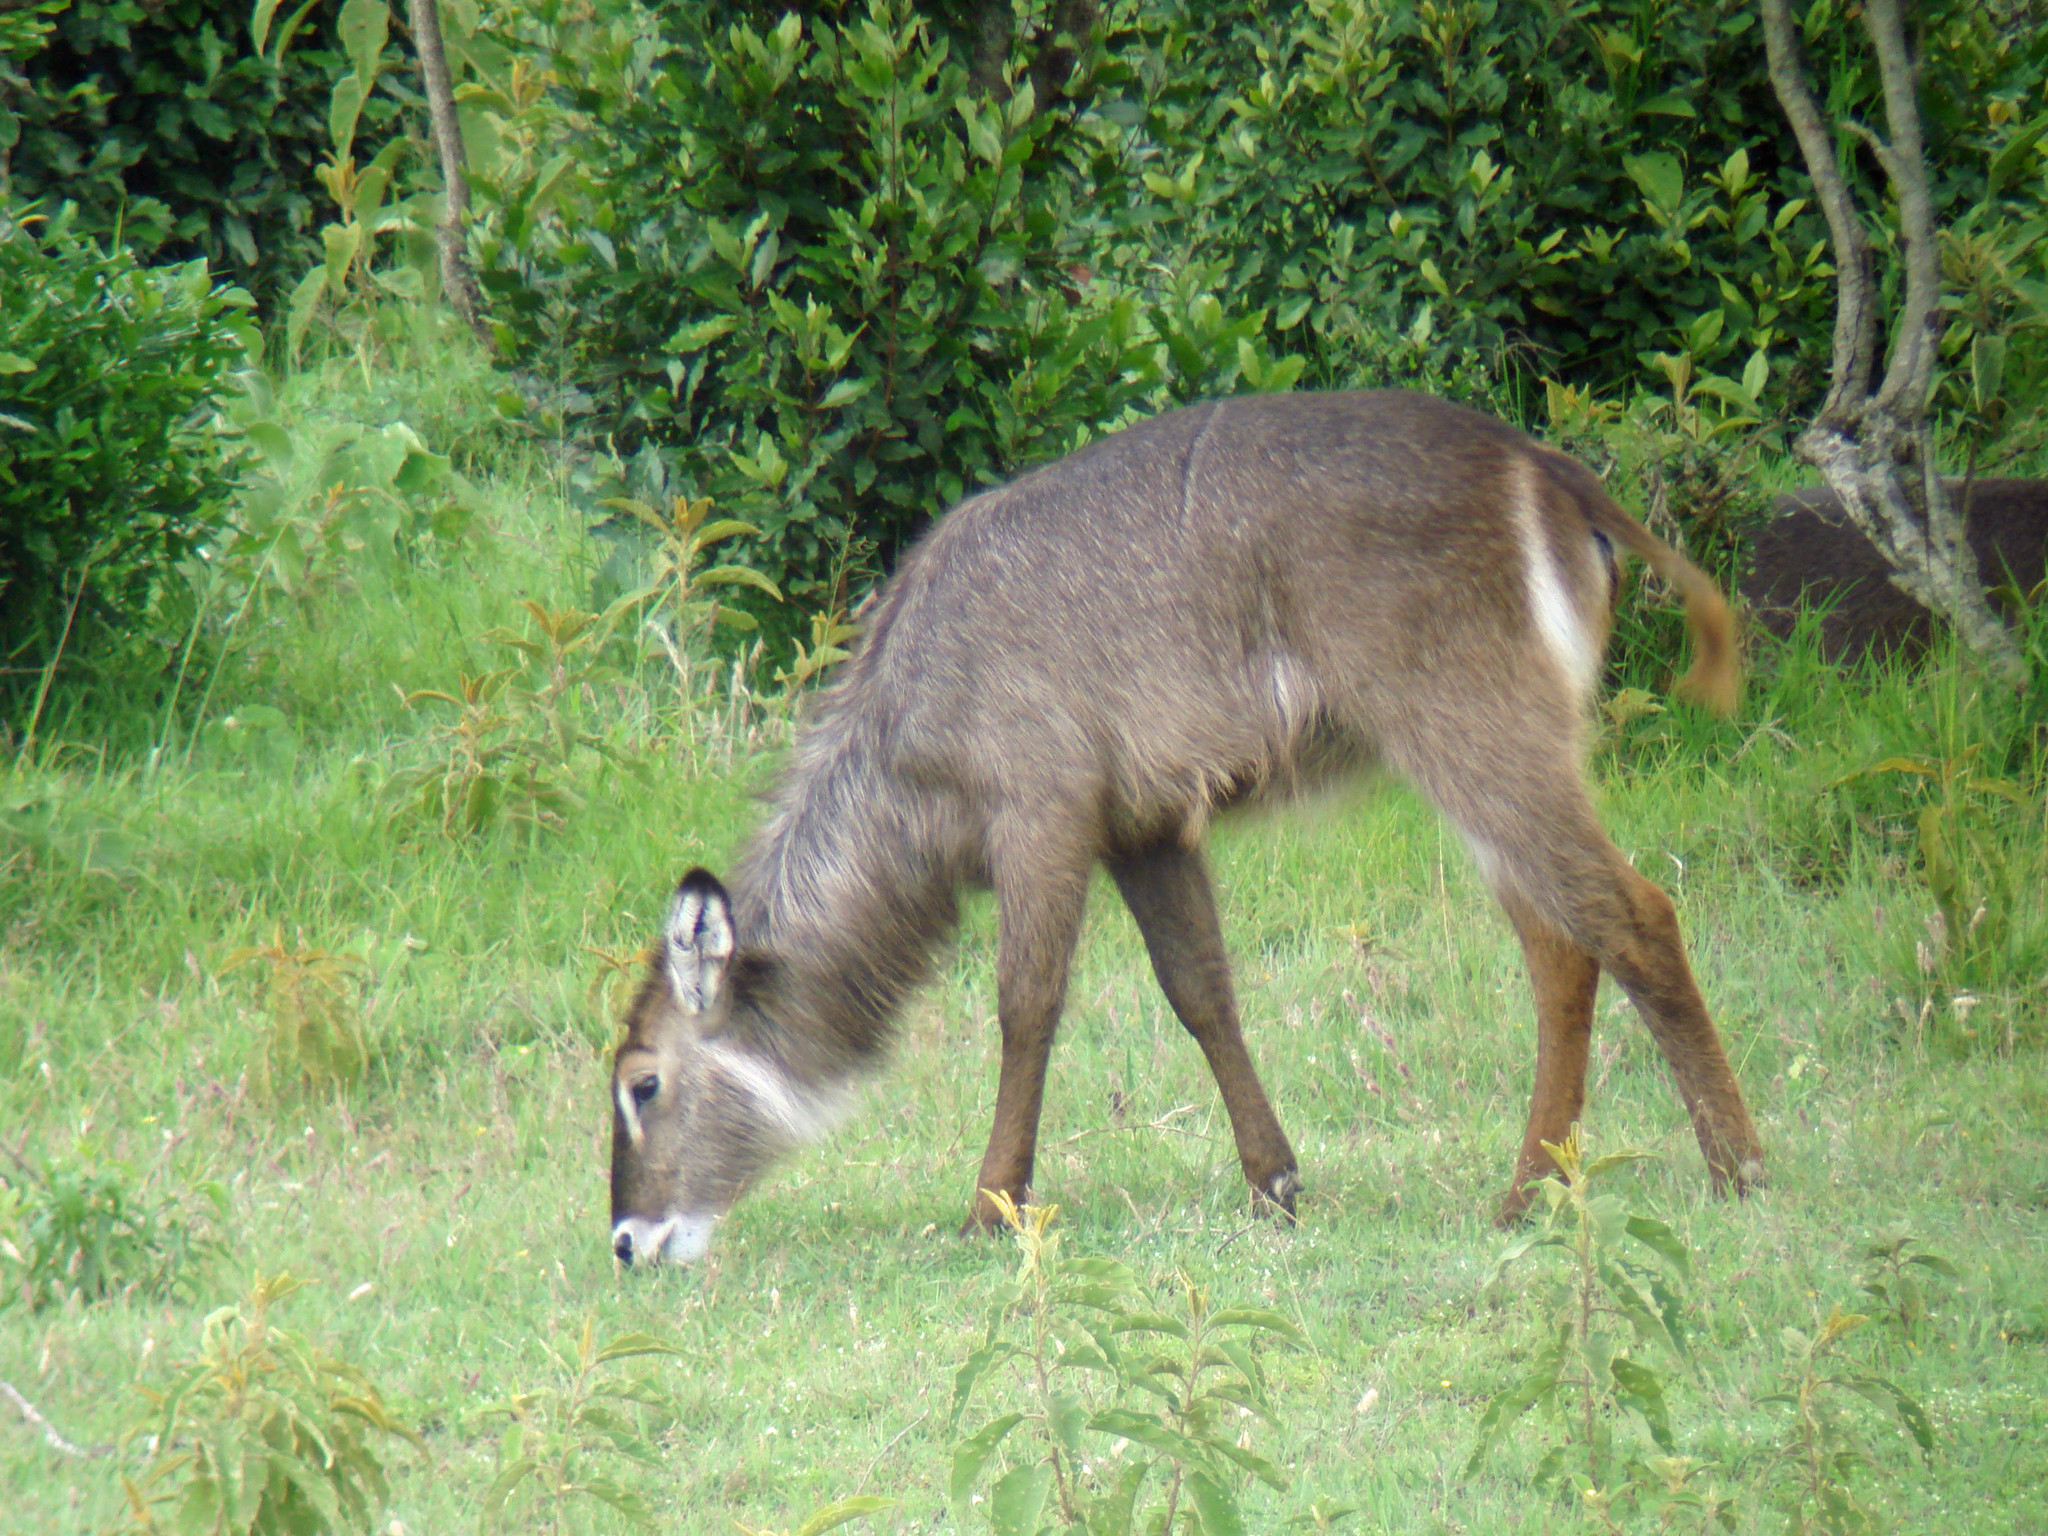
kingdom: Animalia
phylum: Chordata
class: Mammalia
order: Artiodactyla
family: Bovidae
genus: Kobus
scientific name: Kobus ellipsiprymnus
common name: Waterbuck
